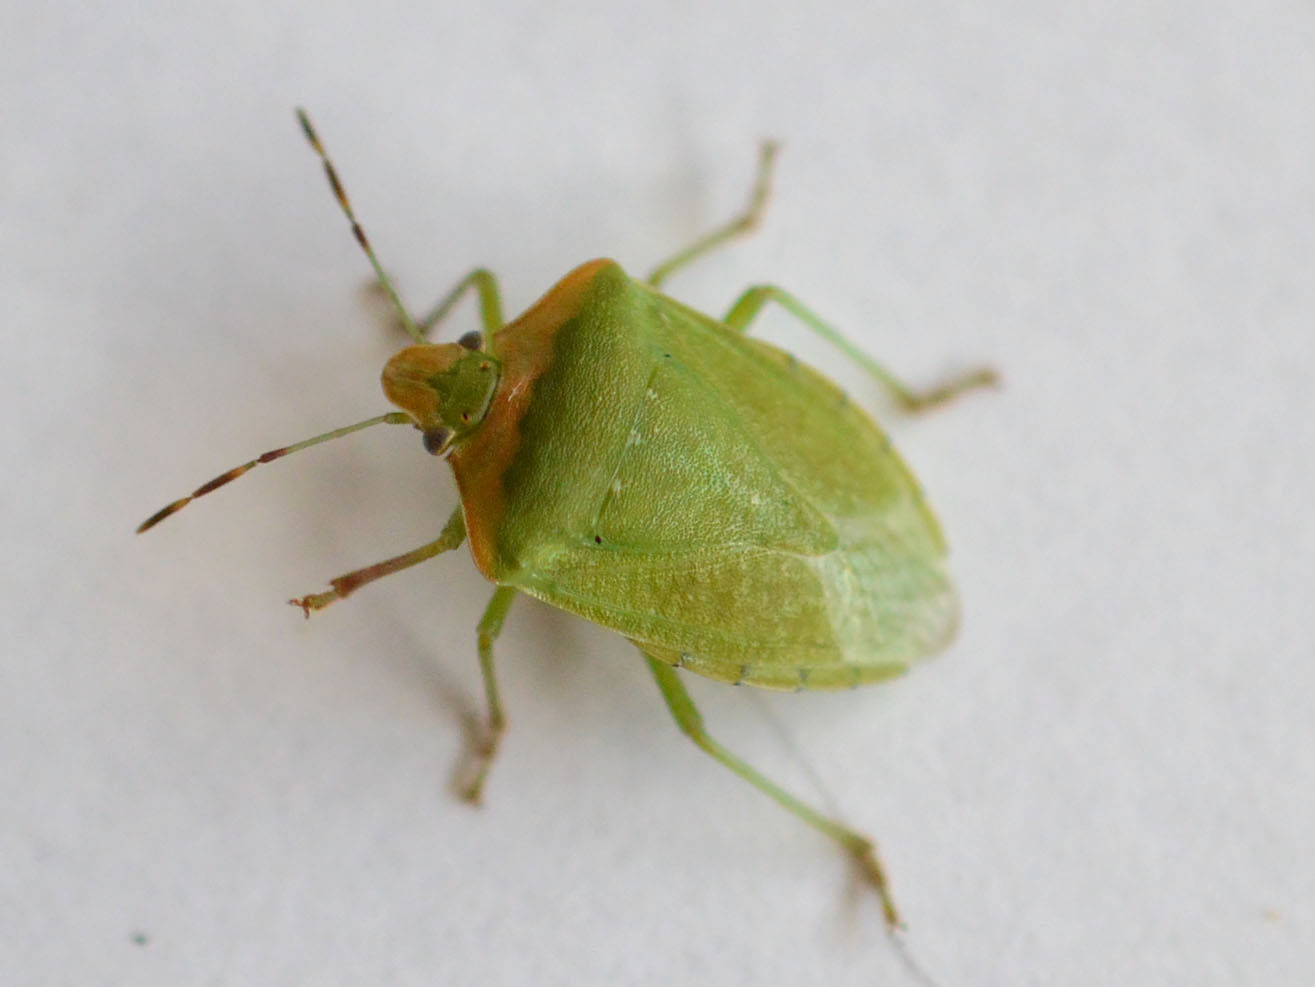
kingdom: Animalia
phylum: Arthropoda
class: Insecta
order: Hemiptera
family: Pentatomidae
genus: Nezara
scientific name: Nezara viridula
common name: Southern green stink bug
